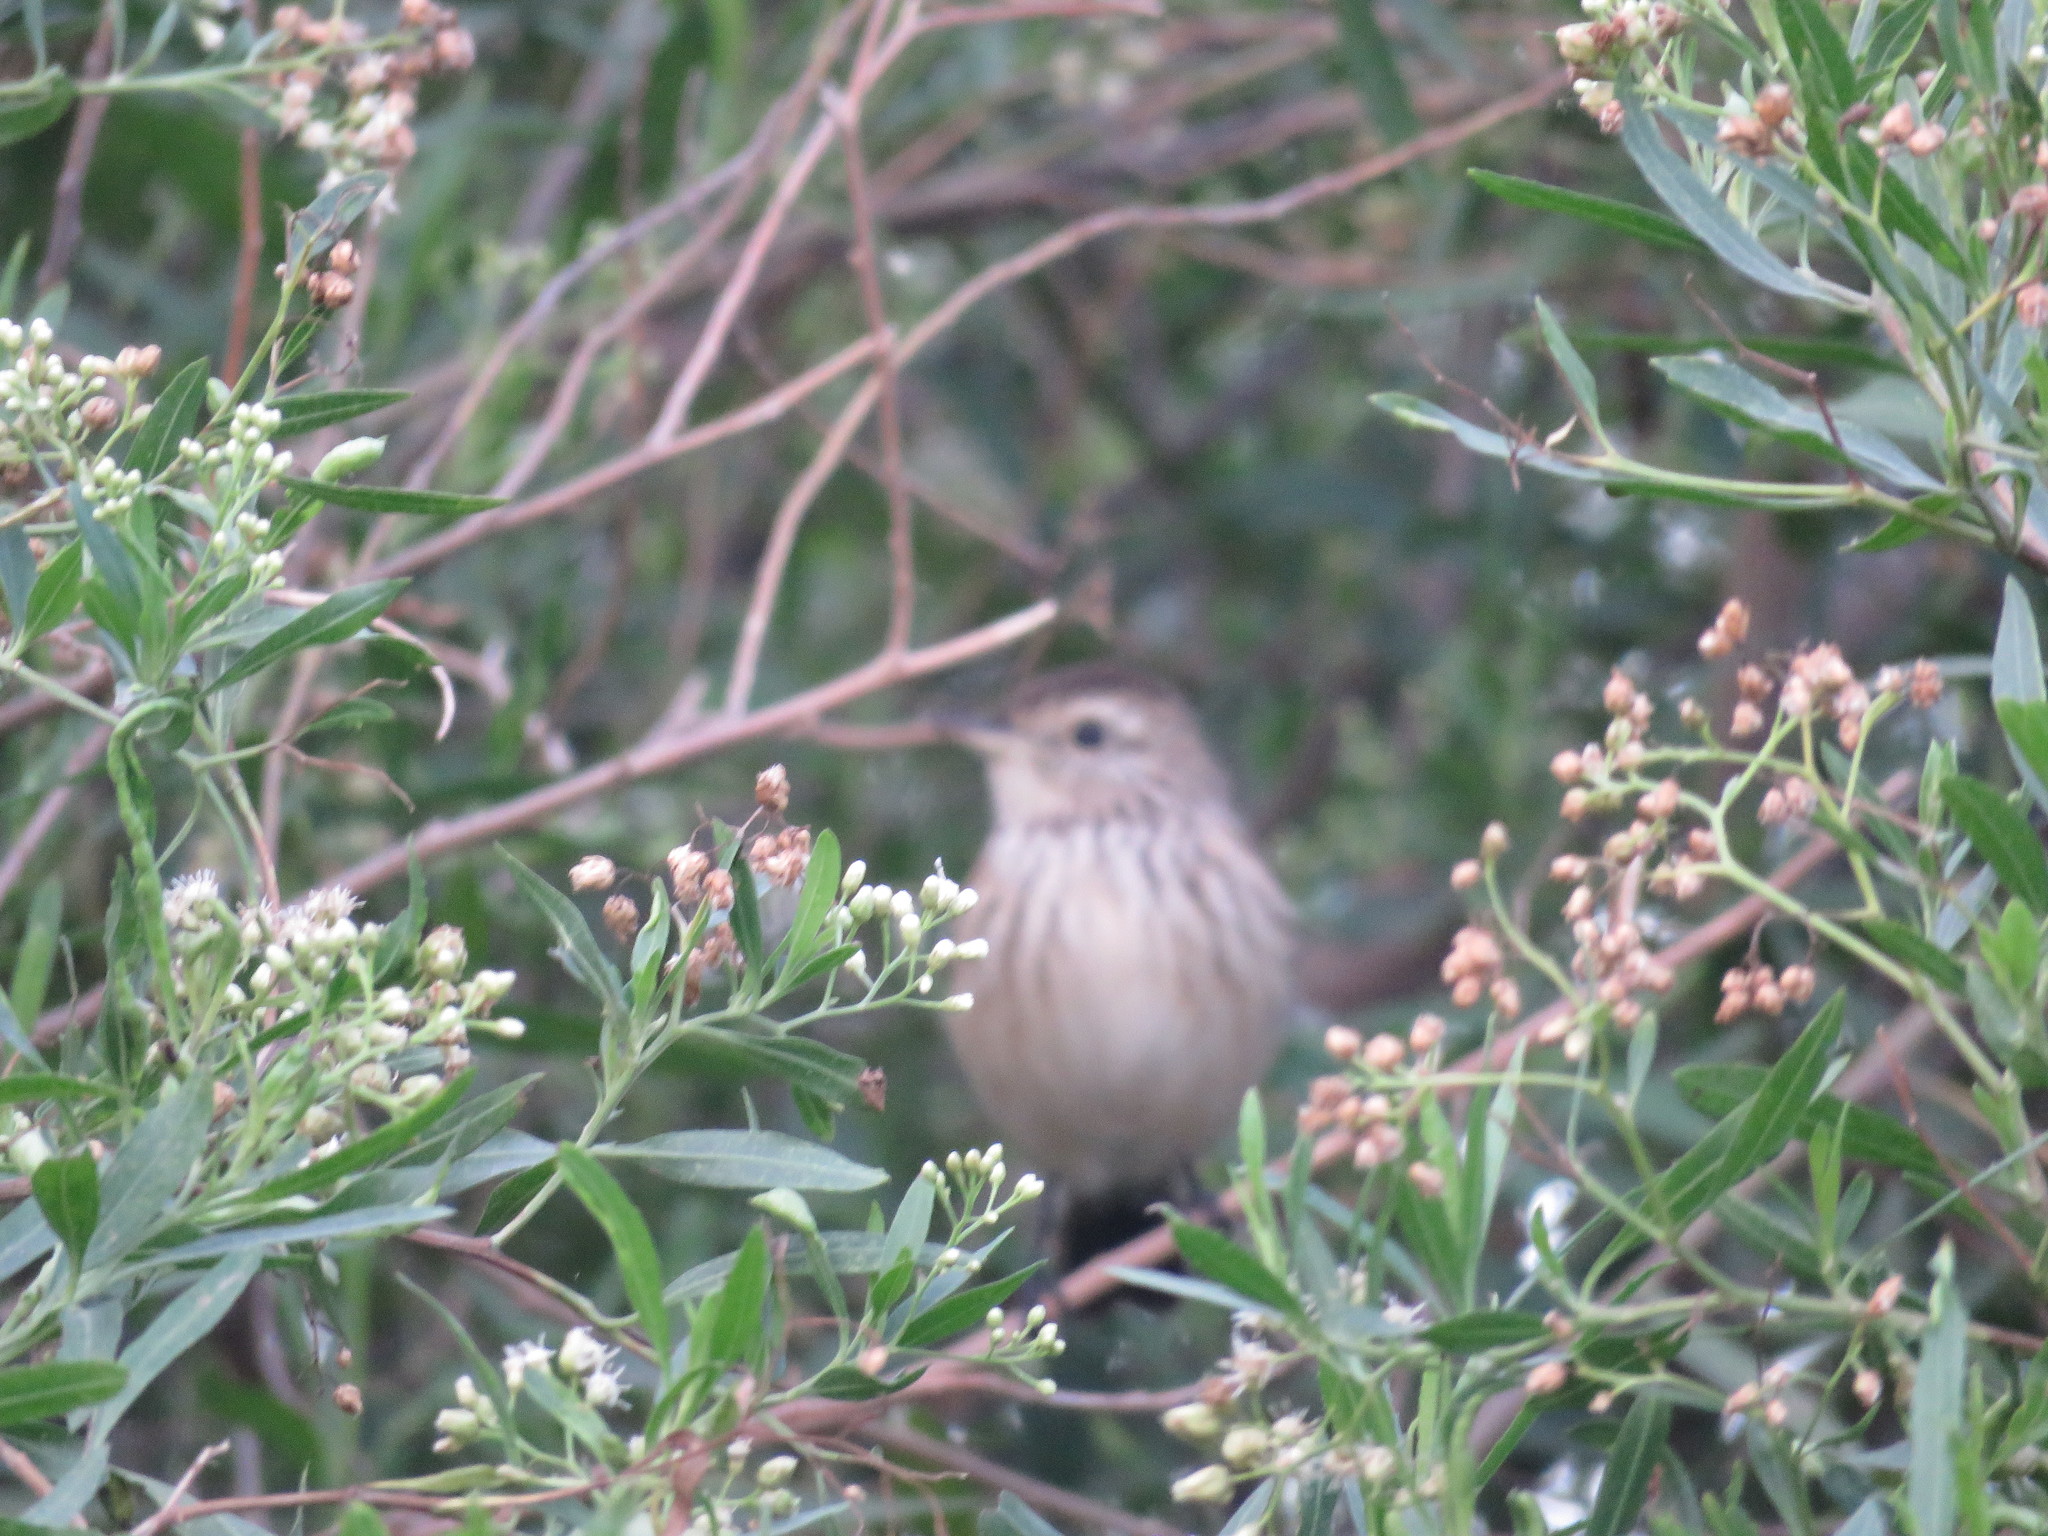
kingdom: Animalia
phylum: Chordata
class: Aves
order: Passeriformes
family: Tyrannidae
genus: Hymenops
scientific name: Hymenops perspicillatus
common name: Spectacled tyrant
